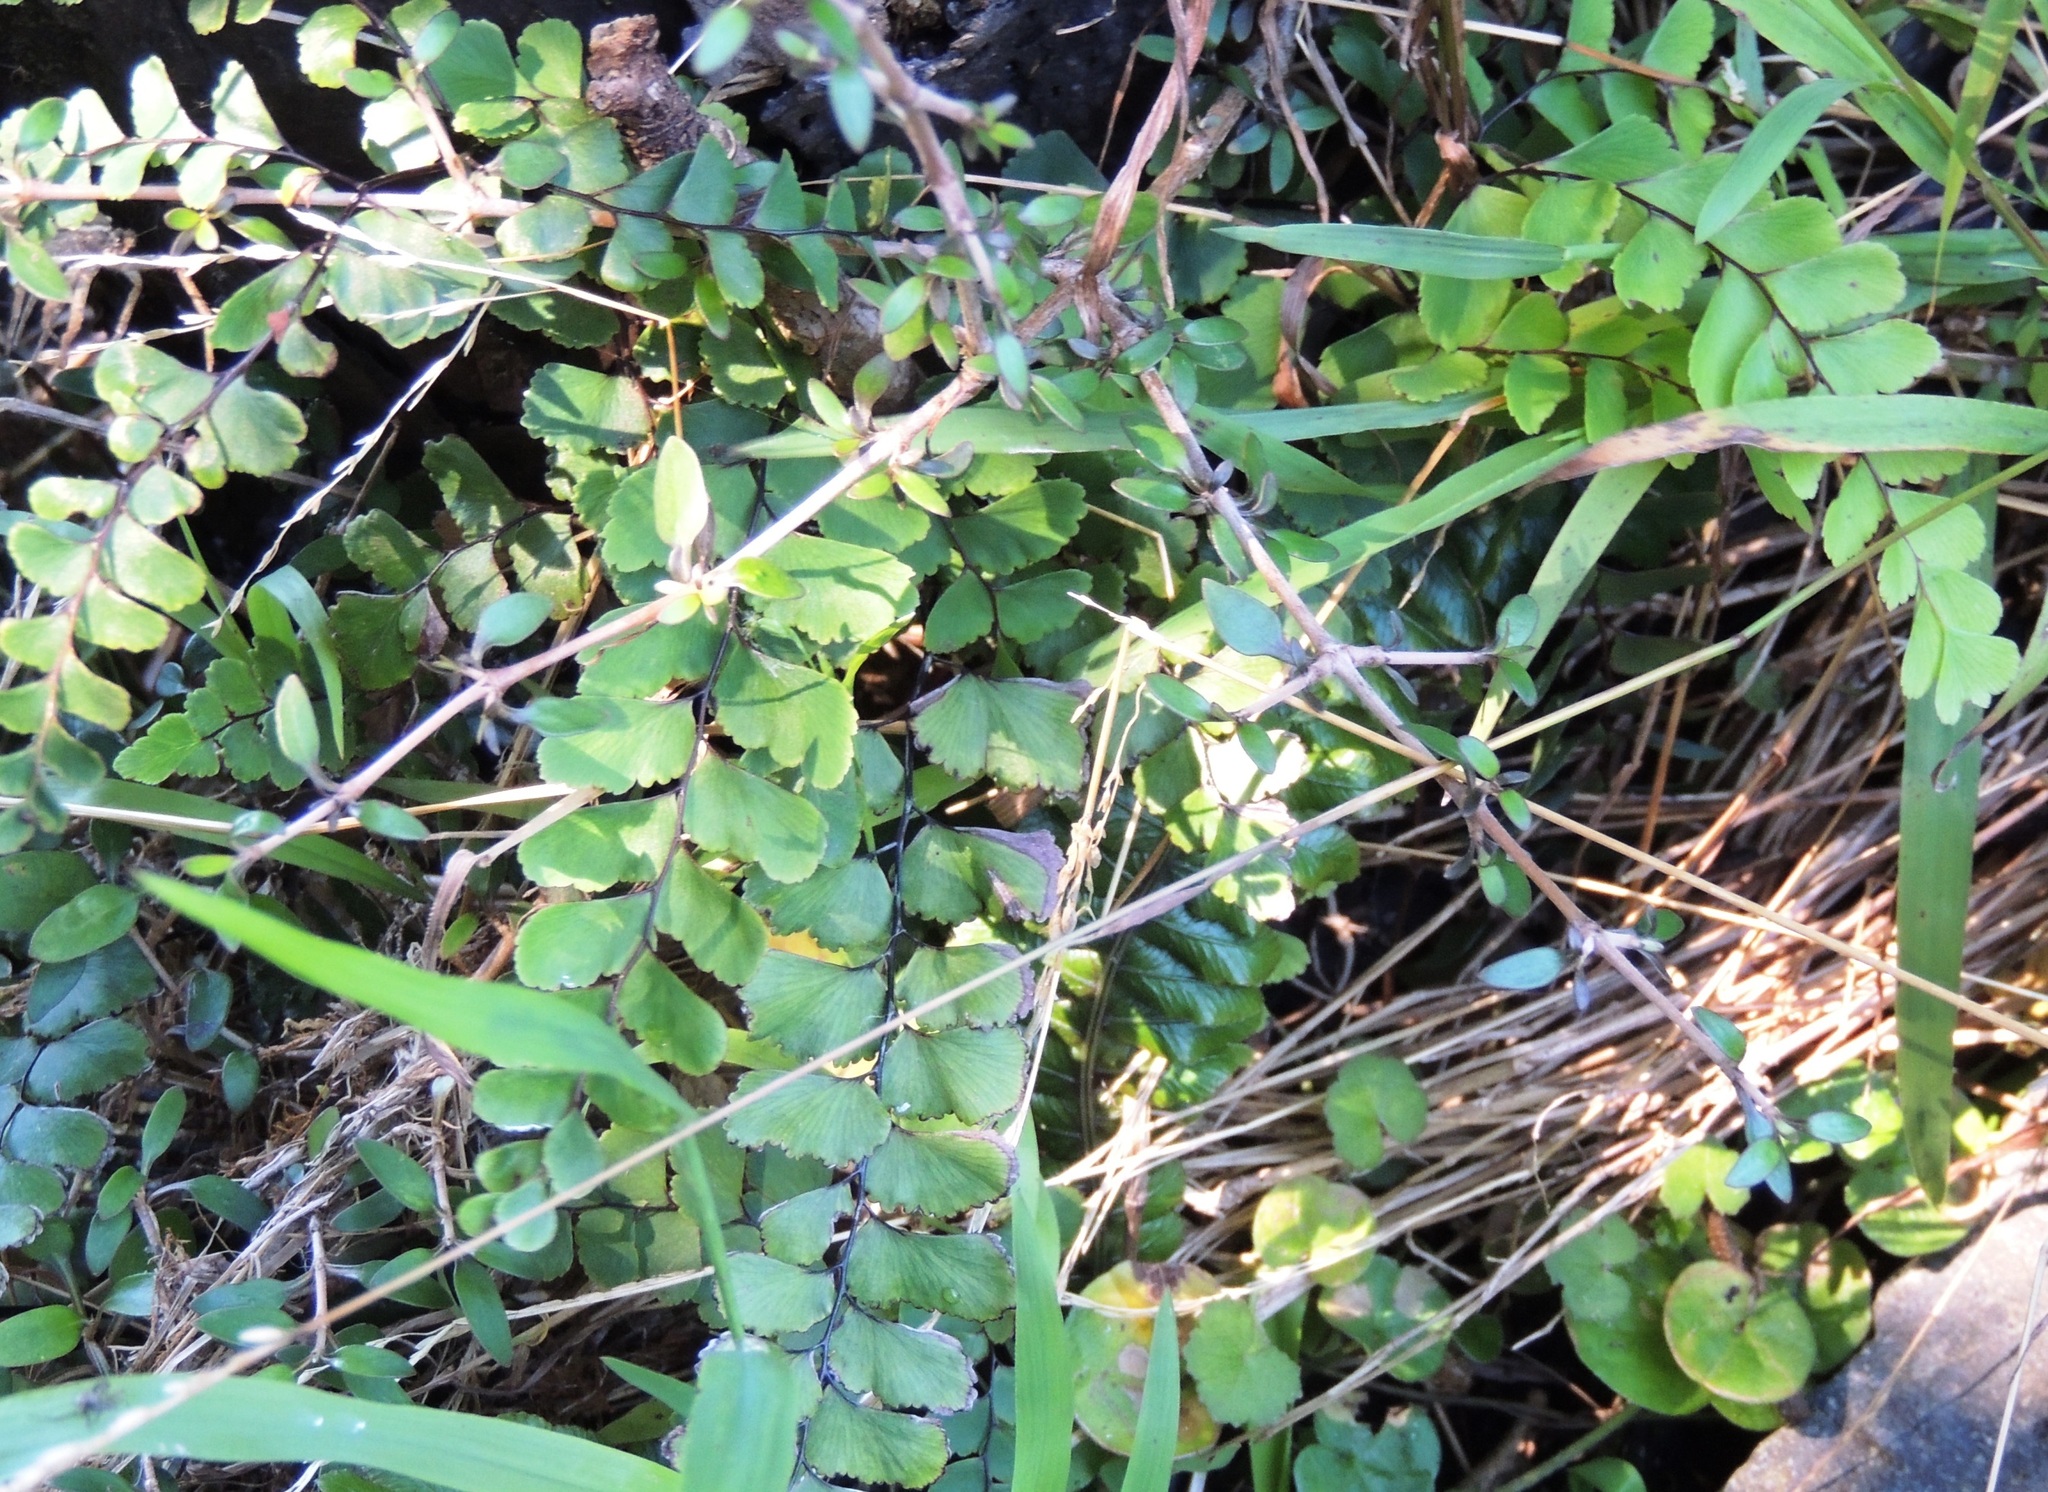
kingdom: Plantae
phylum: Tracheophyta
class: Polypodiopsida
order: Polypodiales
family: Pteridaceae
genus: Adiantum
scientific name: Adiantum cunninghamii
